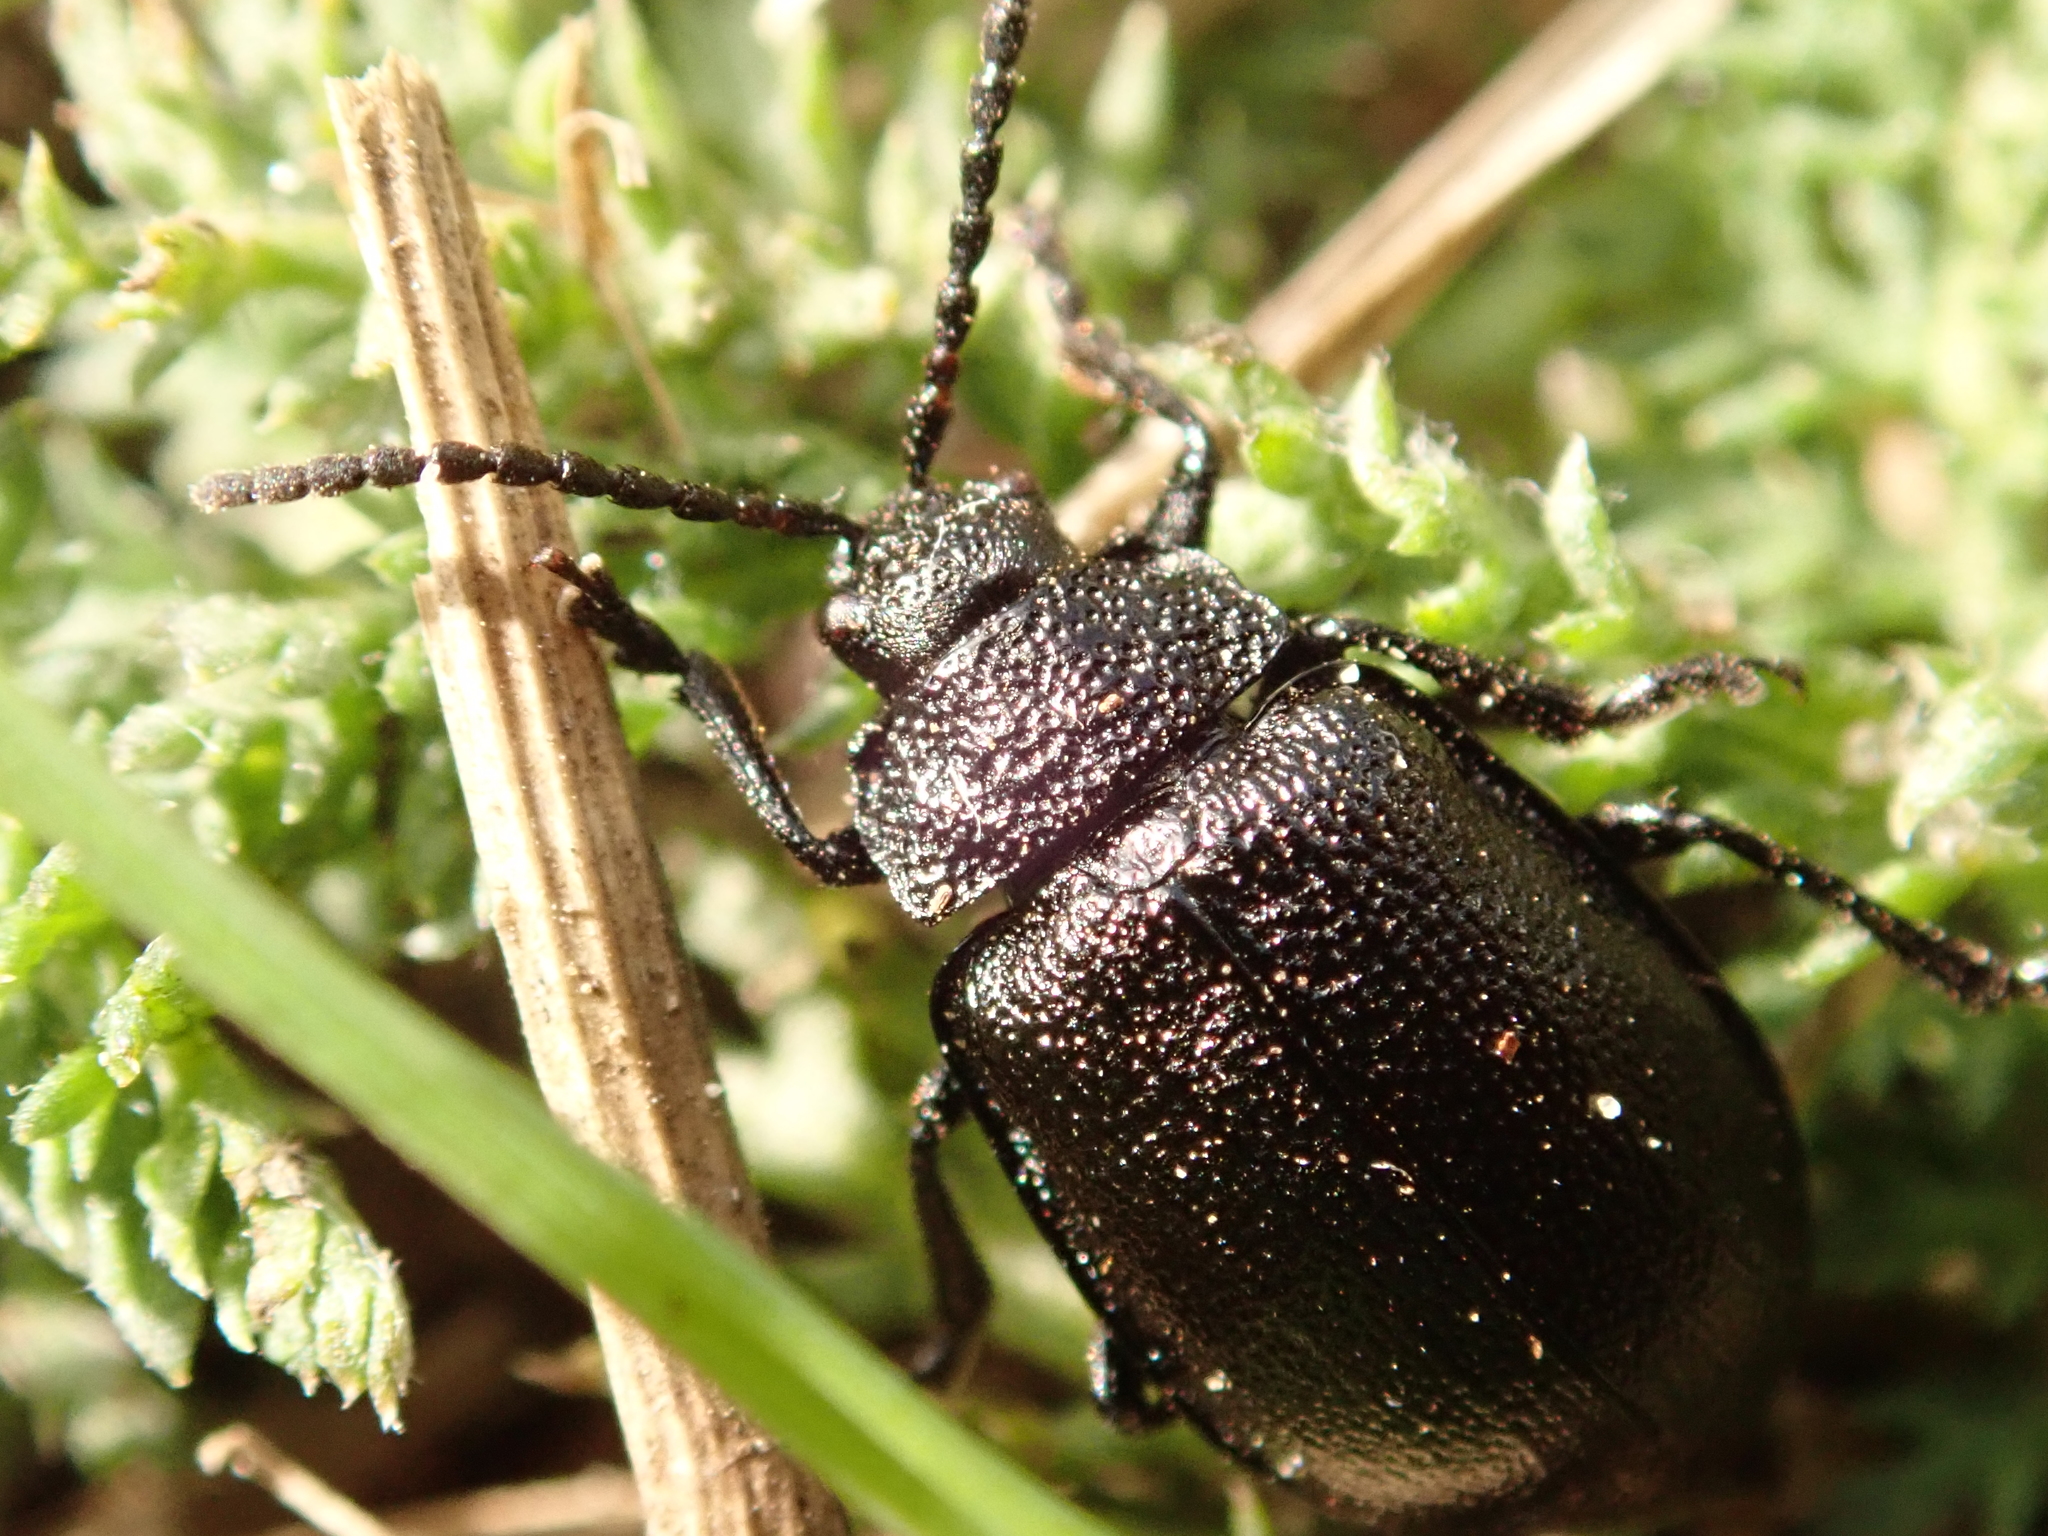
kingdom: Animalia
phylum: Arthropoda
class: Insecta
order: Coleoptera
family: Chrysomelidae
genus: Galeruca
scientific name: Galeruca tanaceti
